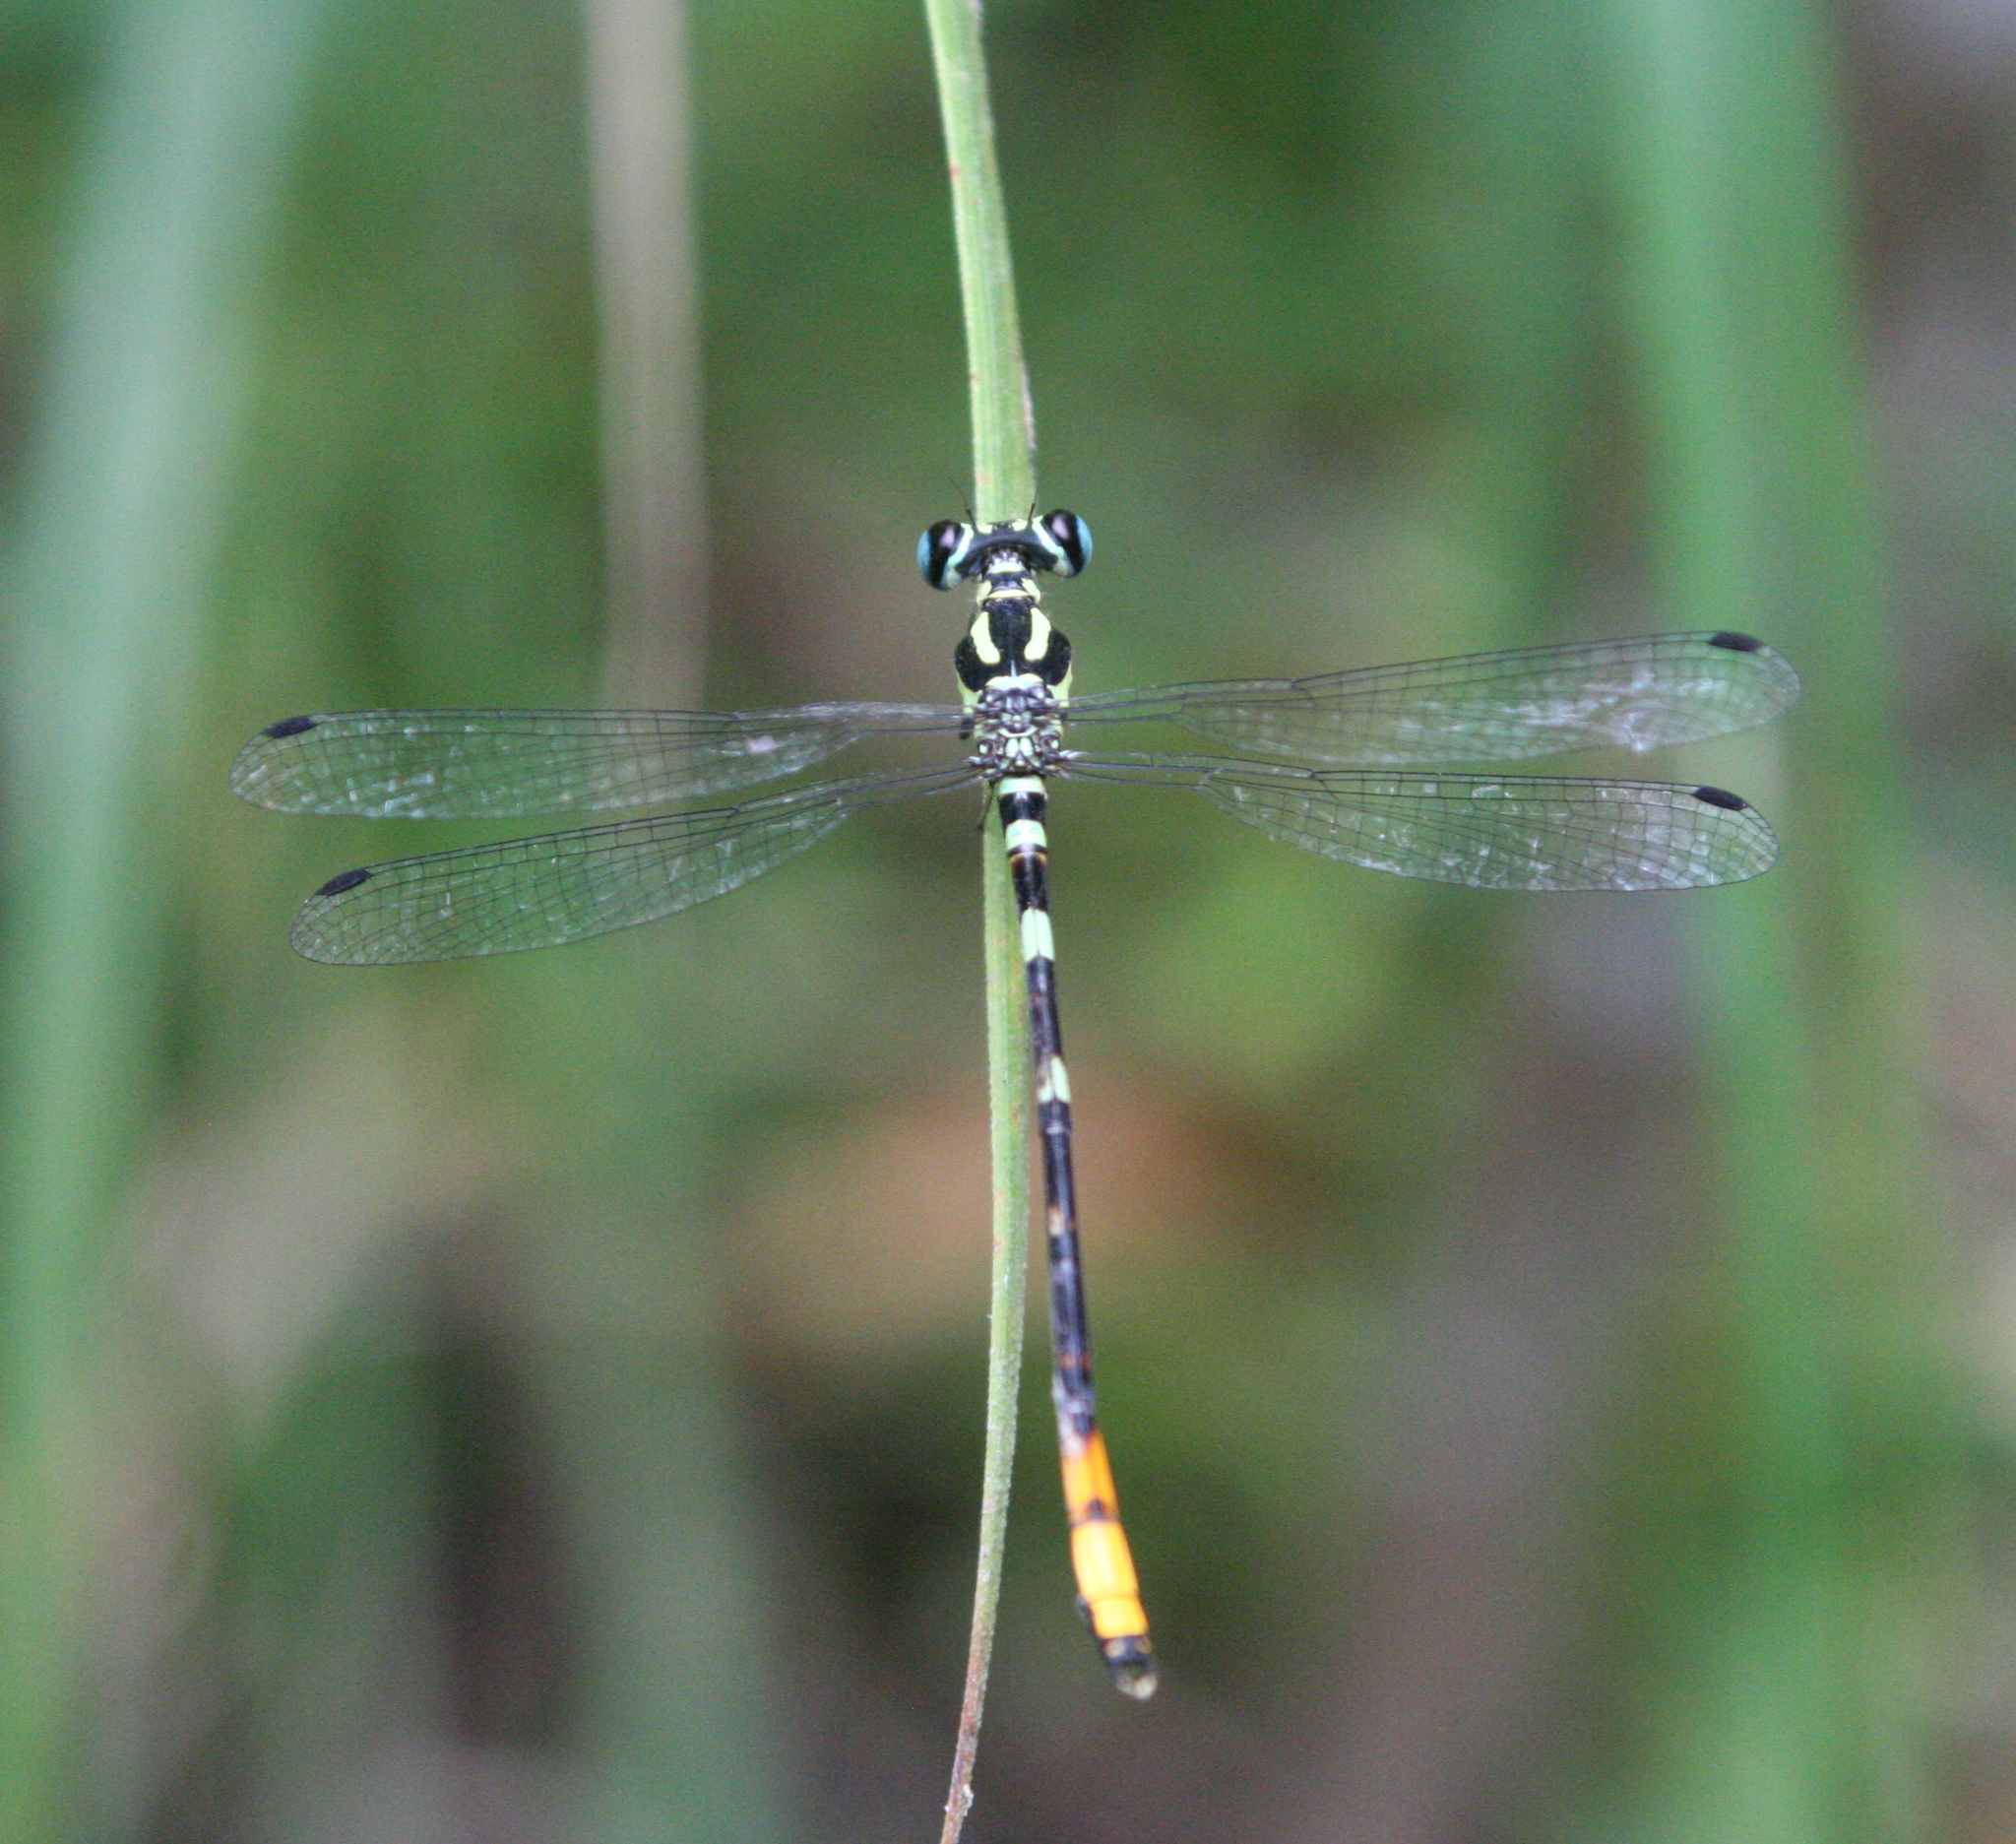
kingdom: Animalia
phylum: Arthropoda
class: Insecta
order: Odonata
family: Philosinidae
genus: Rhinagrion
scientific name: Rhinagrion viridatum
